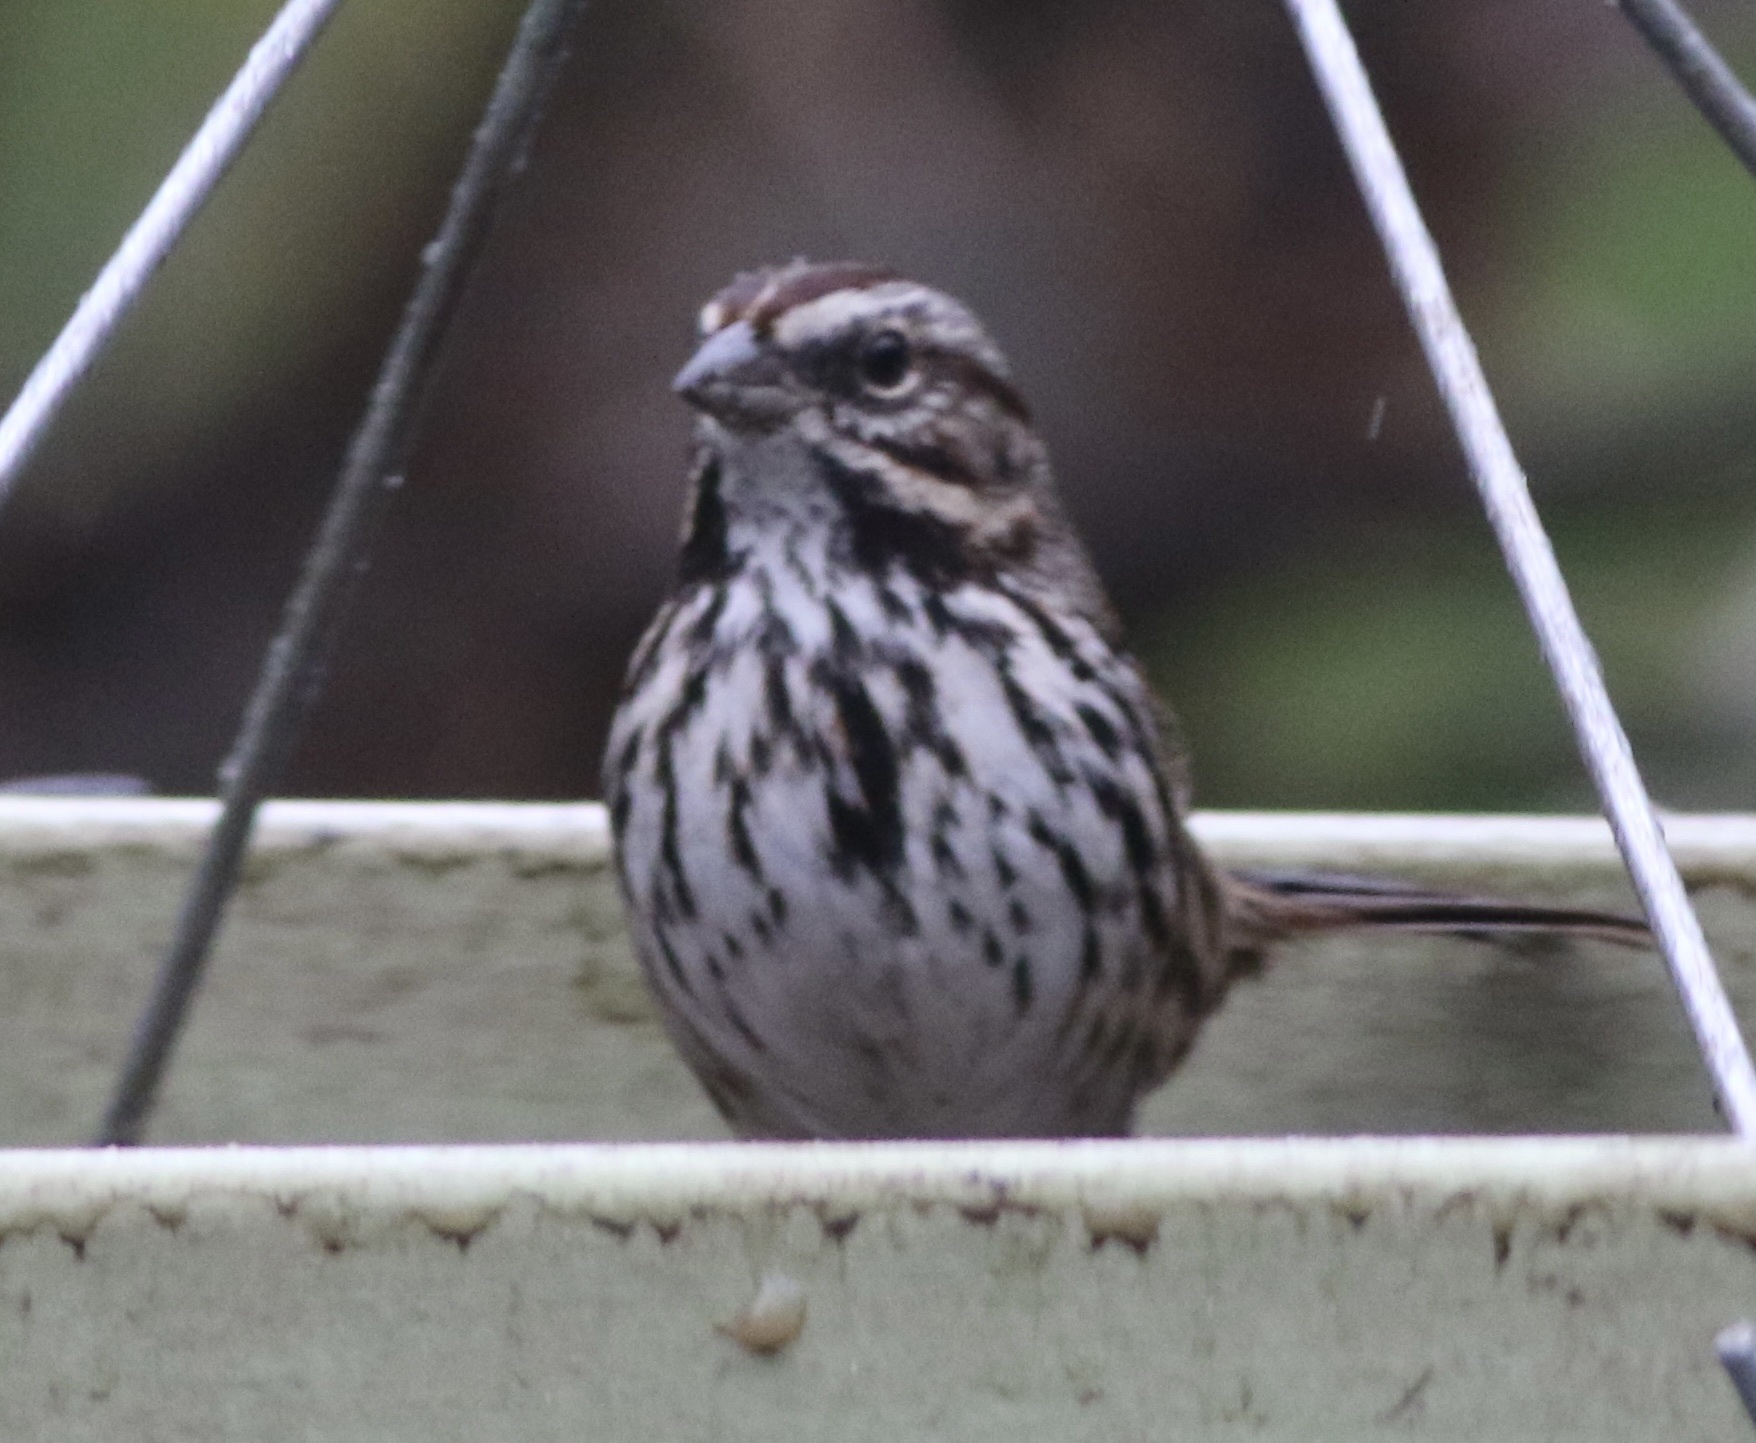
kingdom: Animalia
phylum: Chordata
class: Aves
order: Passeriformes
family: Passerellidae
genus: Melospiza
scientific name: Melospiza melodia
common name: Song sparrow
